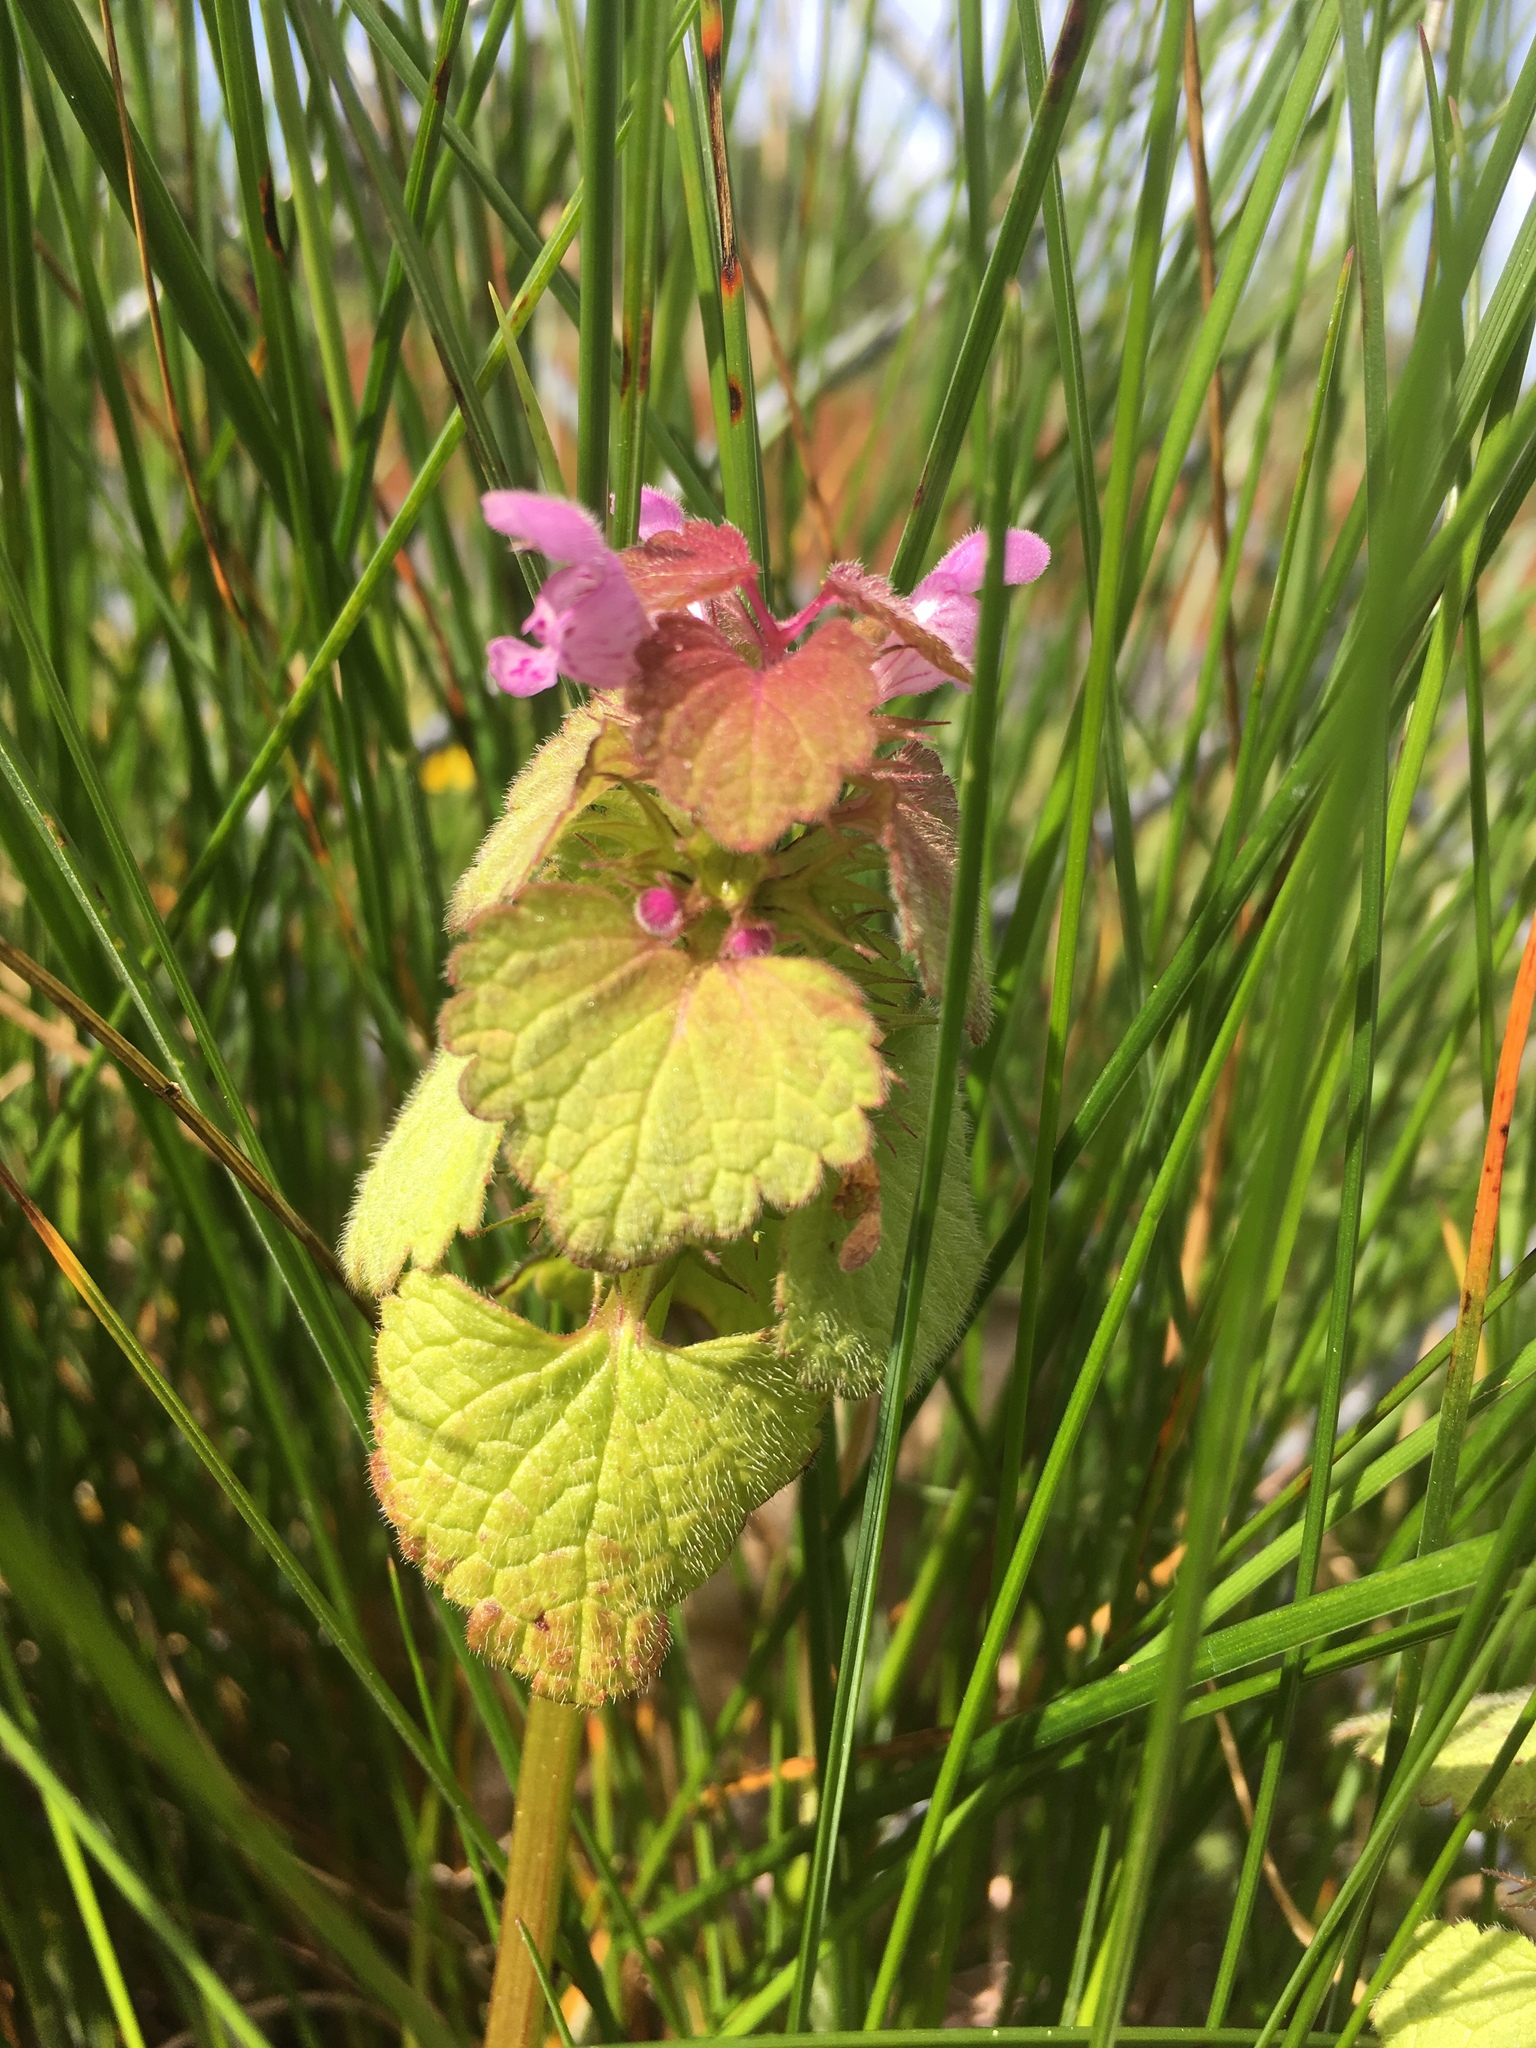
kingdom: Plantae
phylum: Tracheophyta
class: Magnoliopsida
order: Lamiales
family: Lamiaceae
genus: Lamium
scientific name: Lamium purpureum
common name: Red dead-nettle
